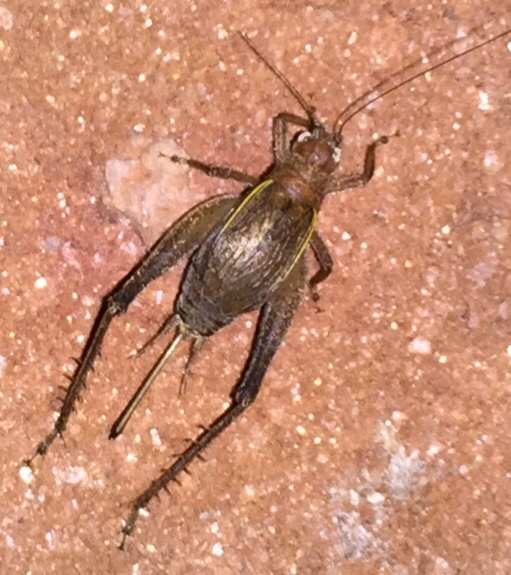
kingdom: Animalia
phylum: Arthropoda
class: Insecta
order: Orthoptera
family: Gryllidae
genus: Hapithus
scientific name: Hapithus agitator
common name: Restless bush cricket
